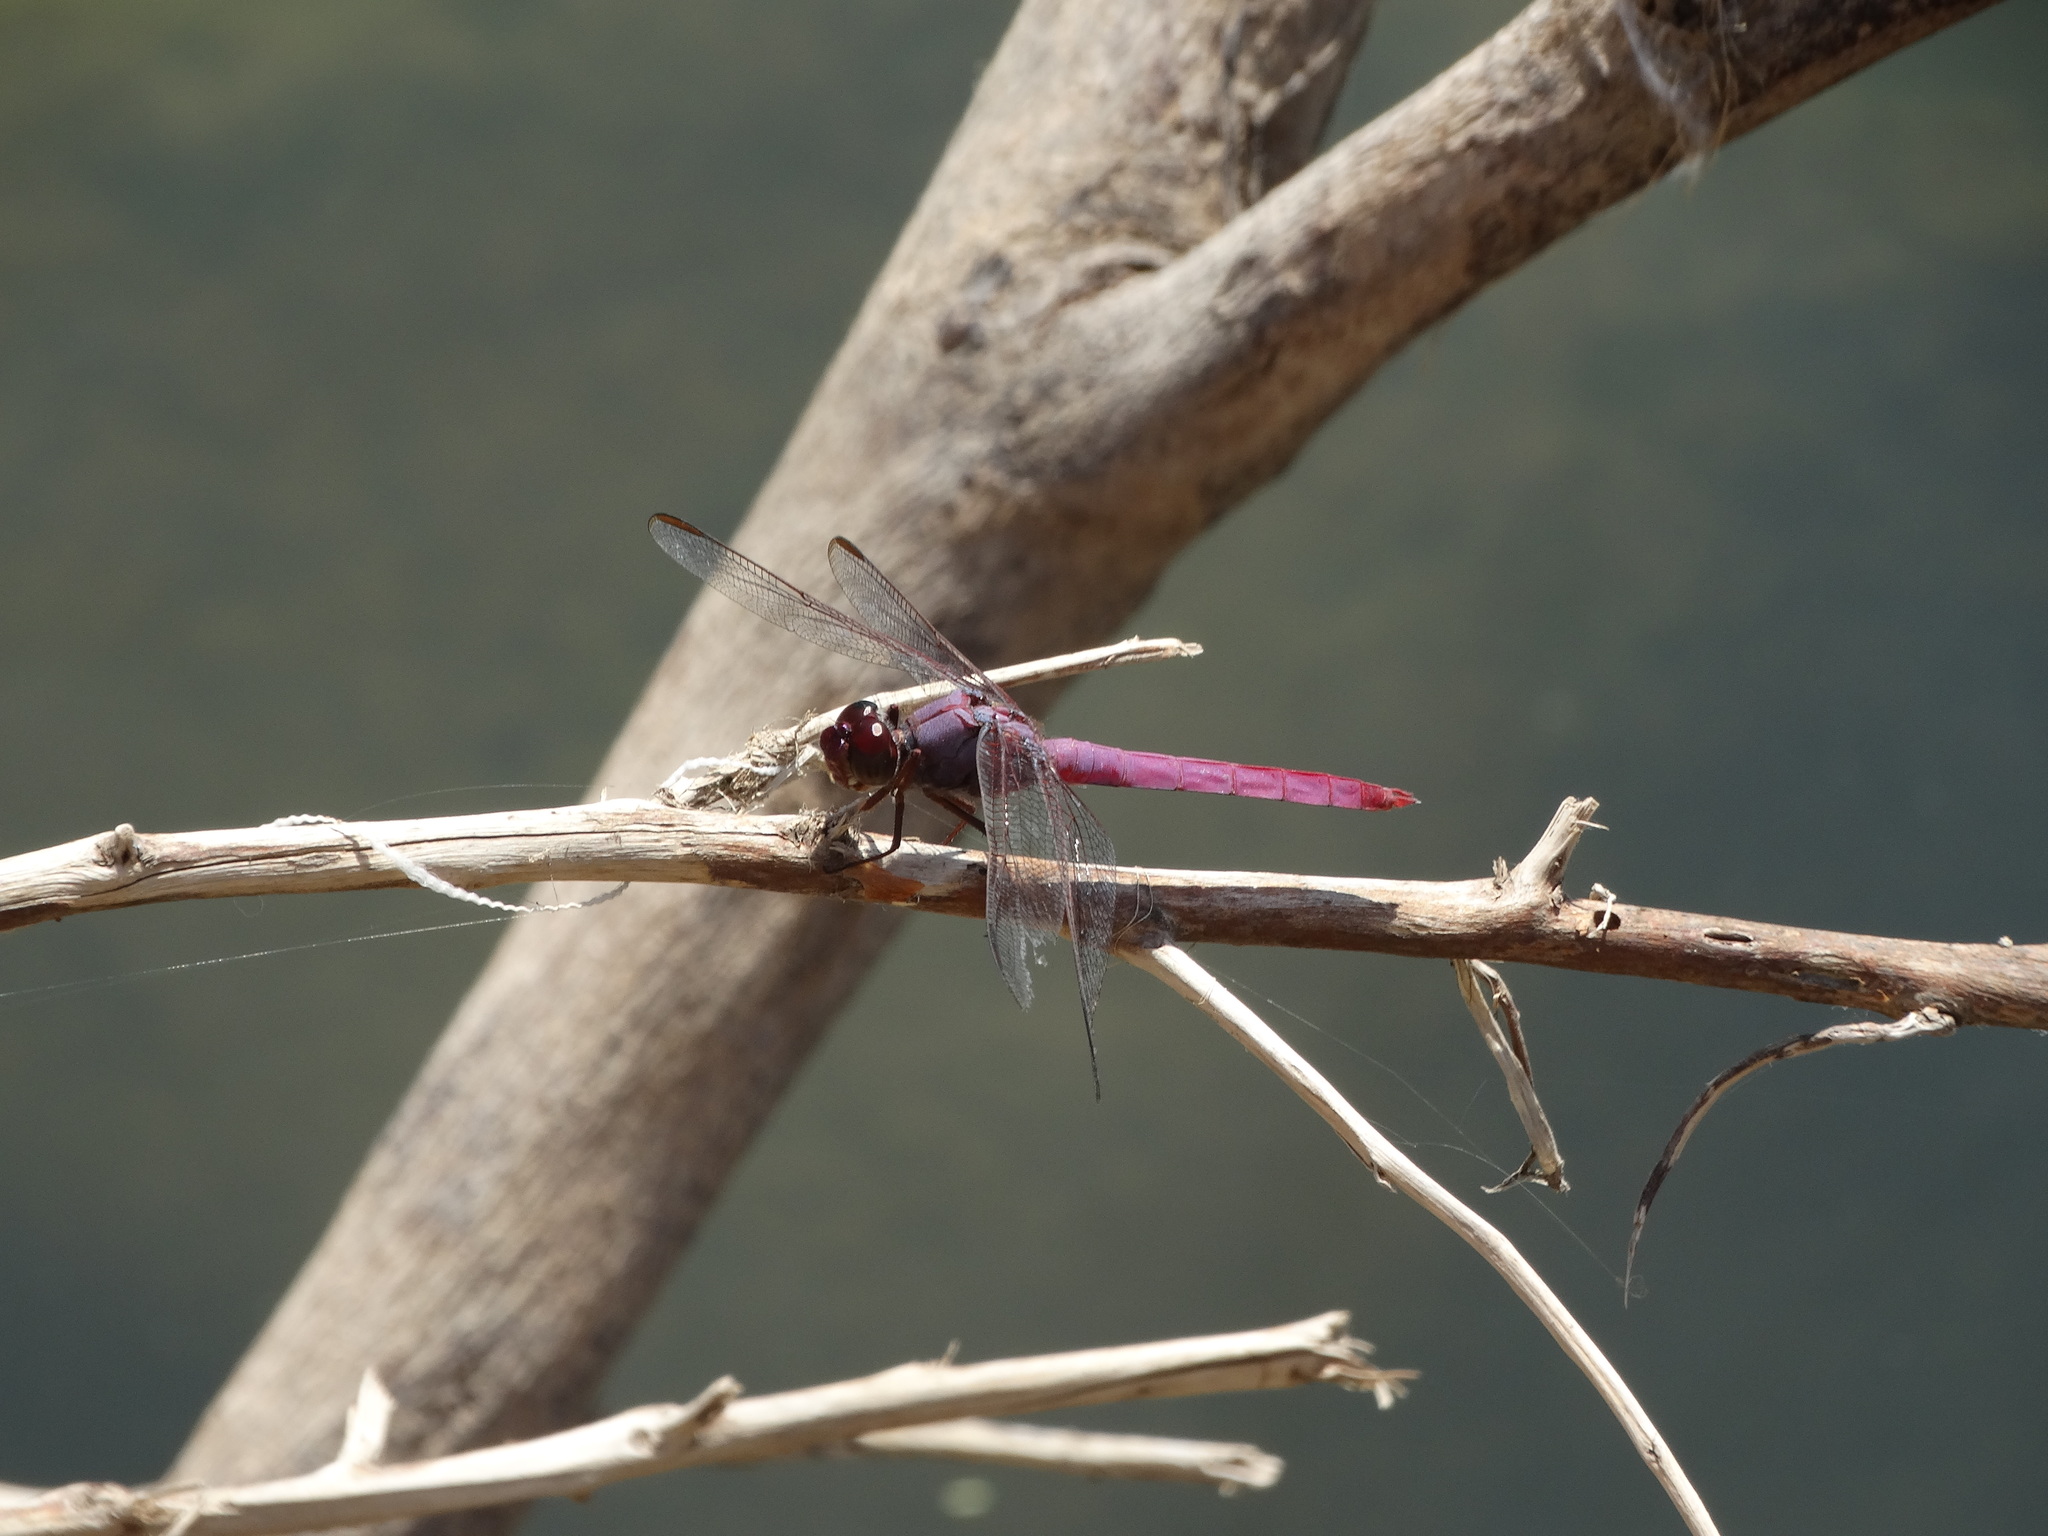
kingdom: Animalia
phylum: Arthropoda
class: Insecta
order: Odonata
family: Libellulidae
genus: Orthemis
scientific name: Orthemis ferruginea
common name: Roseate skimmer
